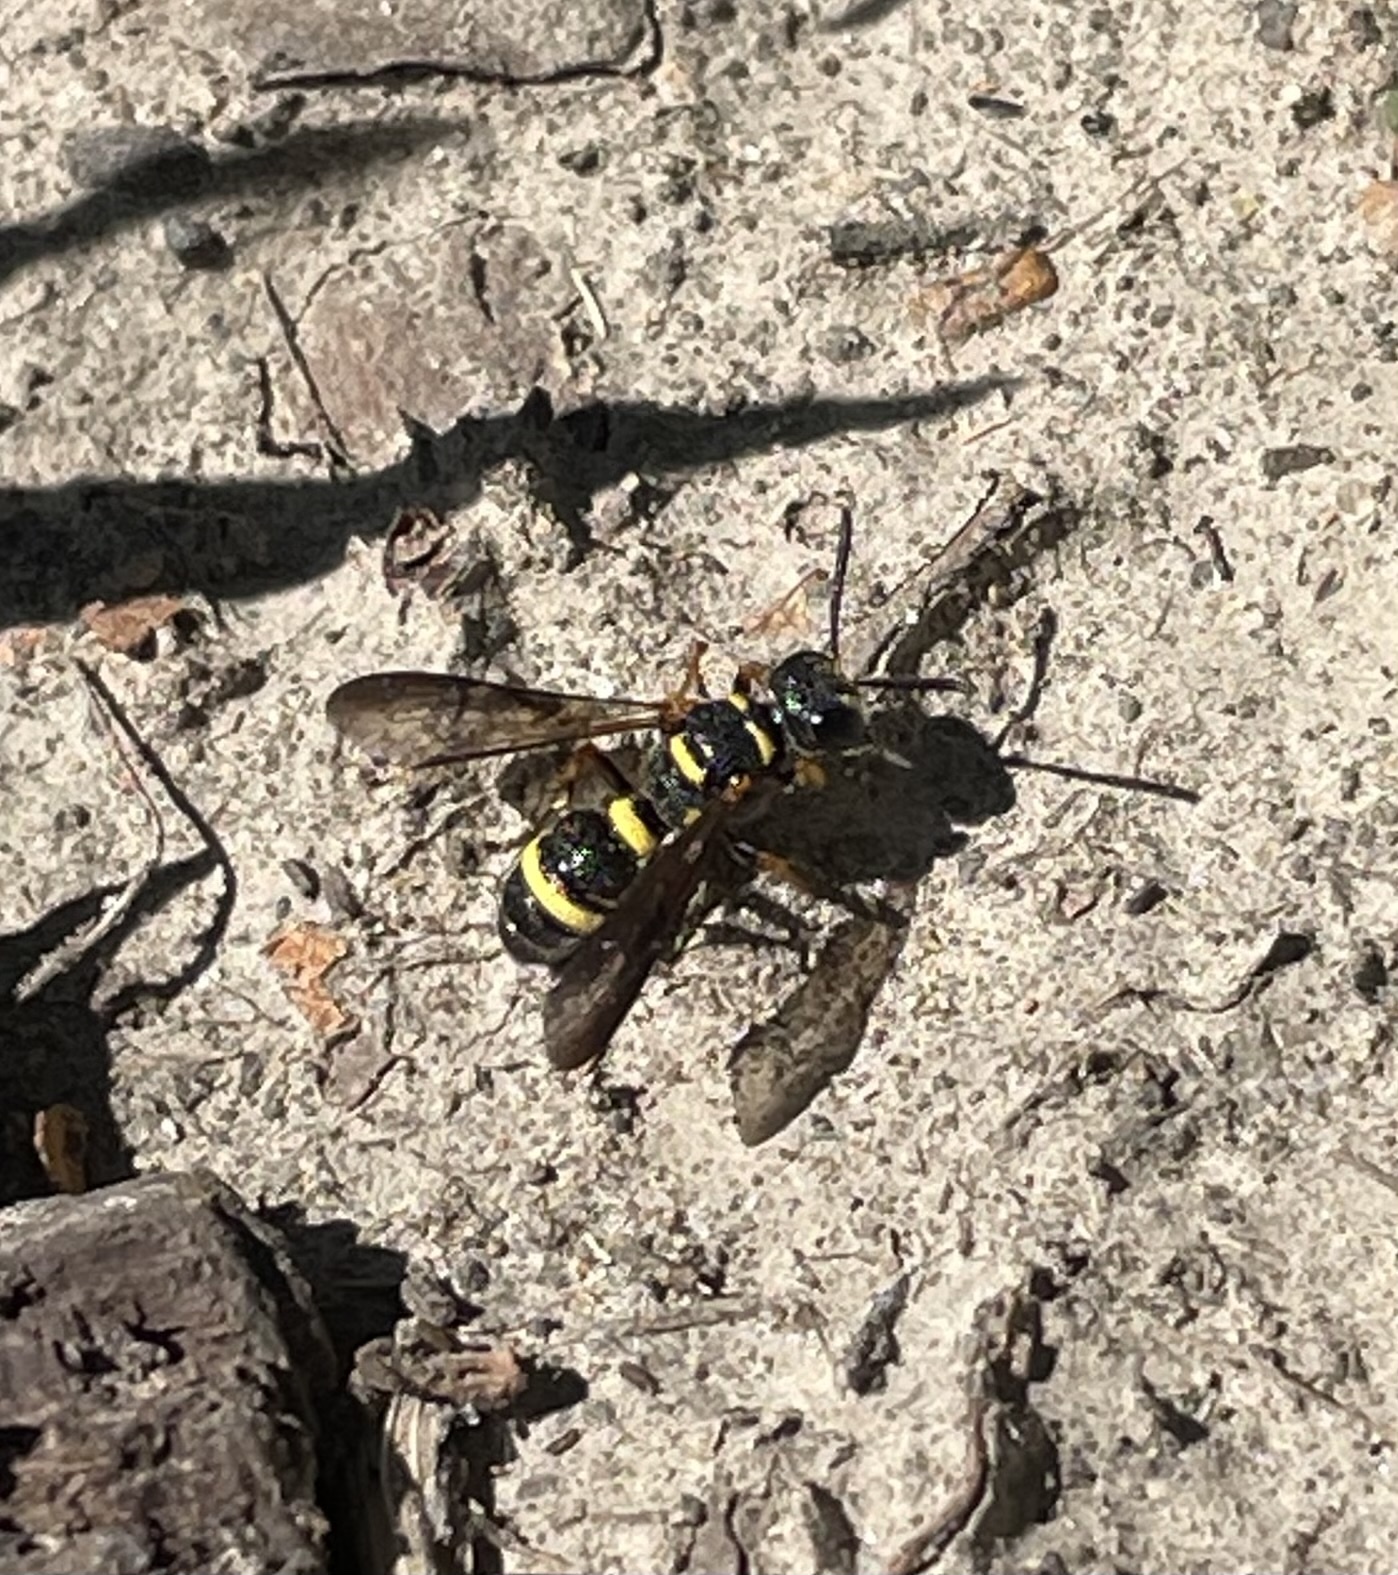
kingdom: Animalia
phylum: Arthropoda
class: Insecta
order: Hymenoptera
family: Crabronidae
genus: Cerceris
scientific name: Cerceris insolita
